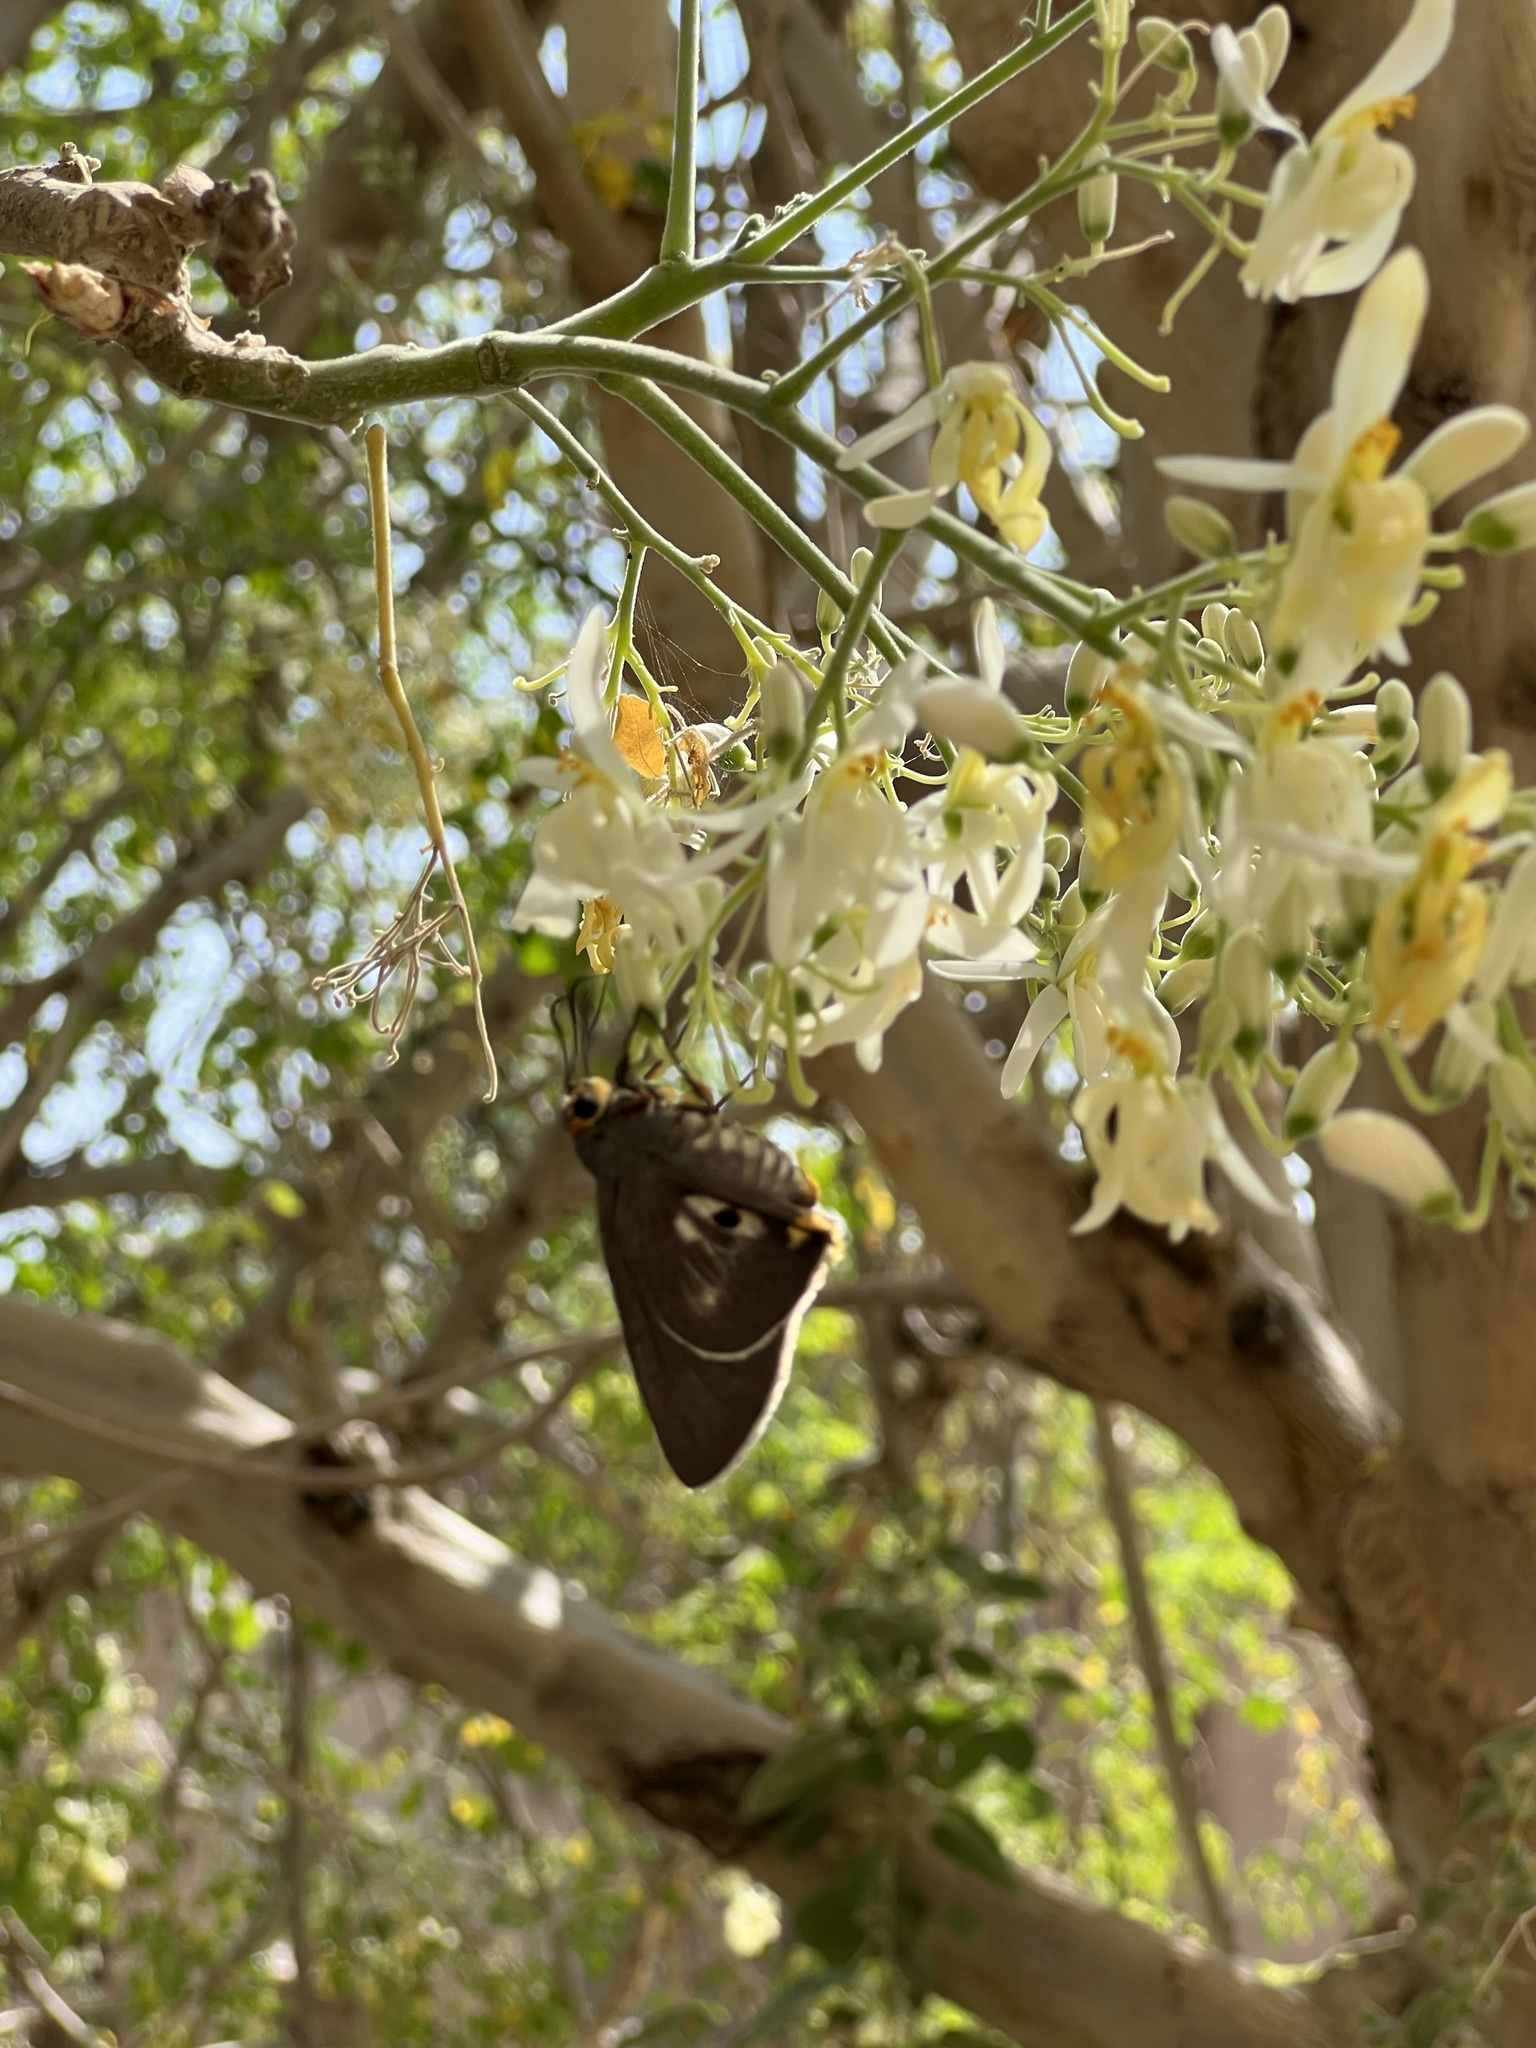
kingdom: Animalia
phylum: Arthropoda
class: Insecta
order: Lepidoptera
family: Hesperiidae
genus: Coeliades
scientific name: Coeliades anchises
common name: One-pip policeman
